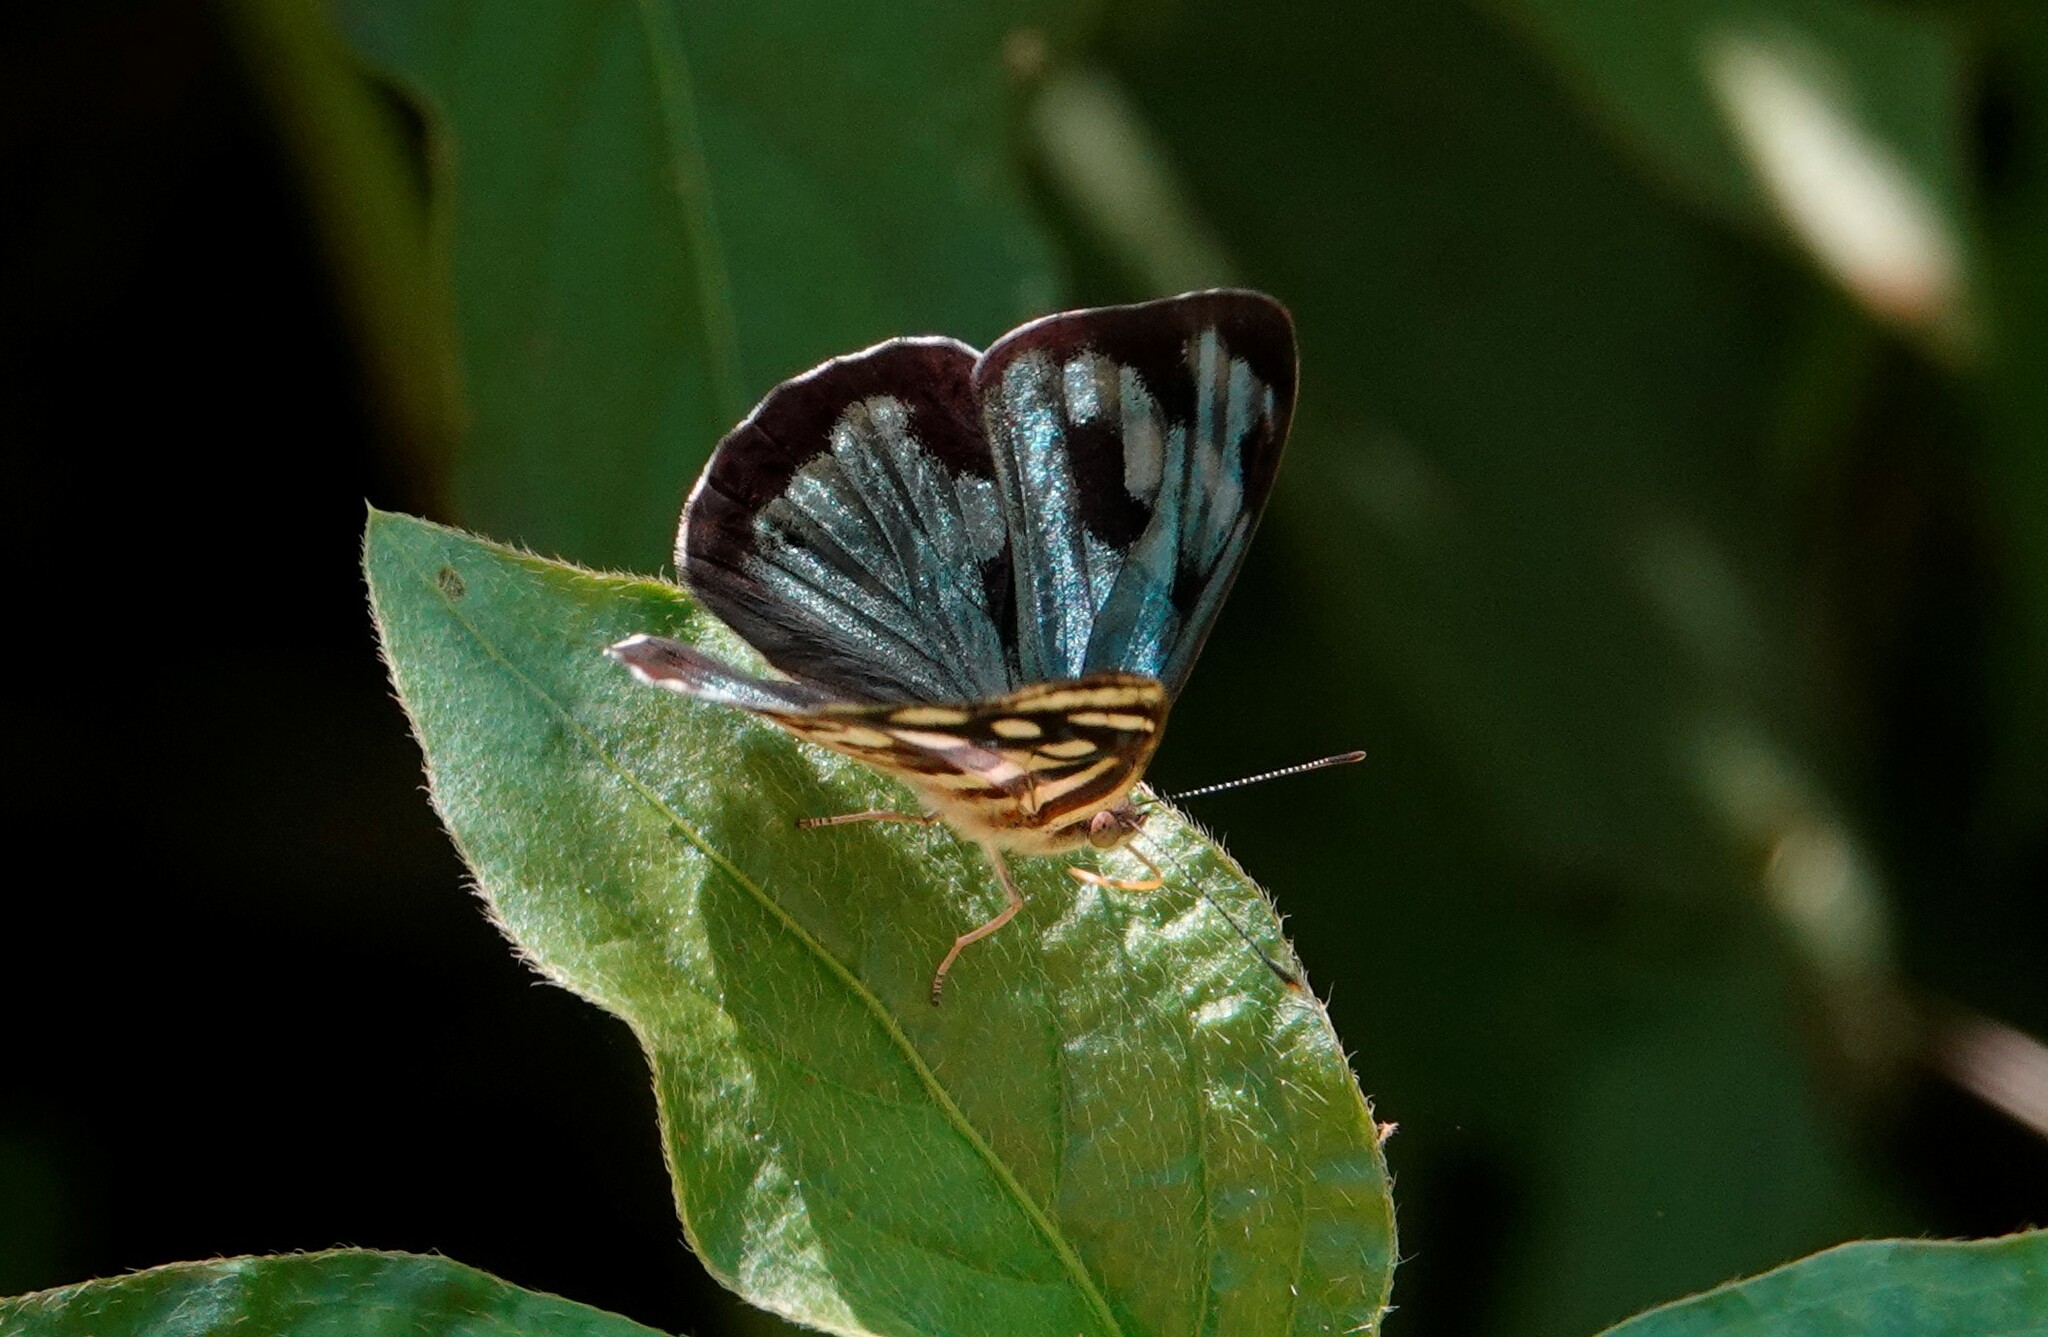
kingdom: Animalia
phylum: Arthropoda
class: Insecta
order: Lepidoptera
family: Nymphalidae
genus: Dynamine
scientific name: Dynamine mylitta
